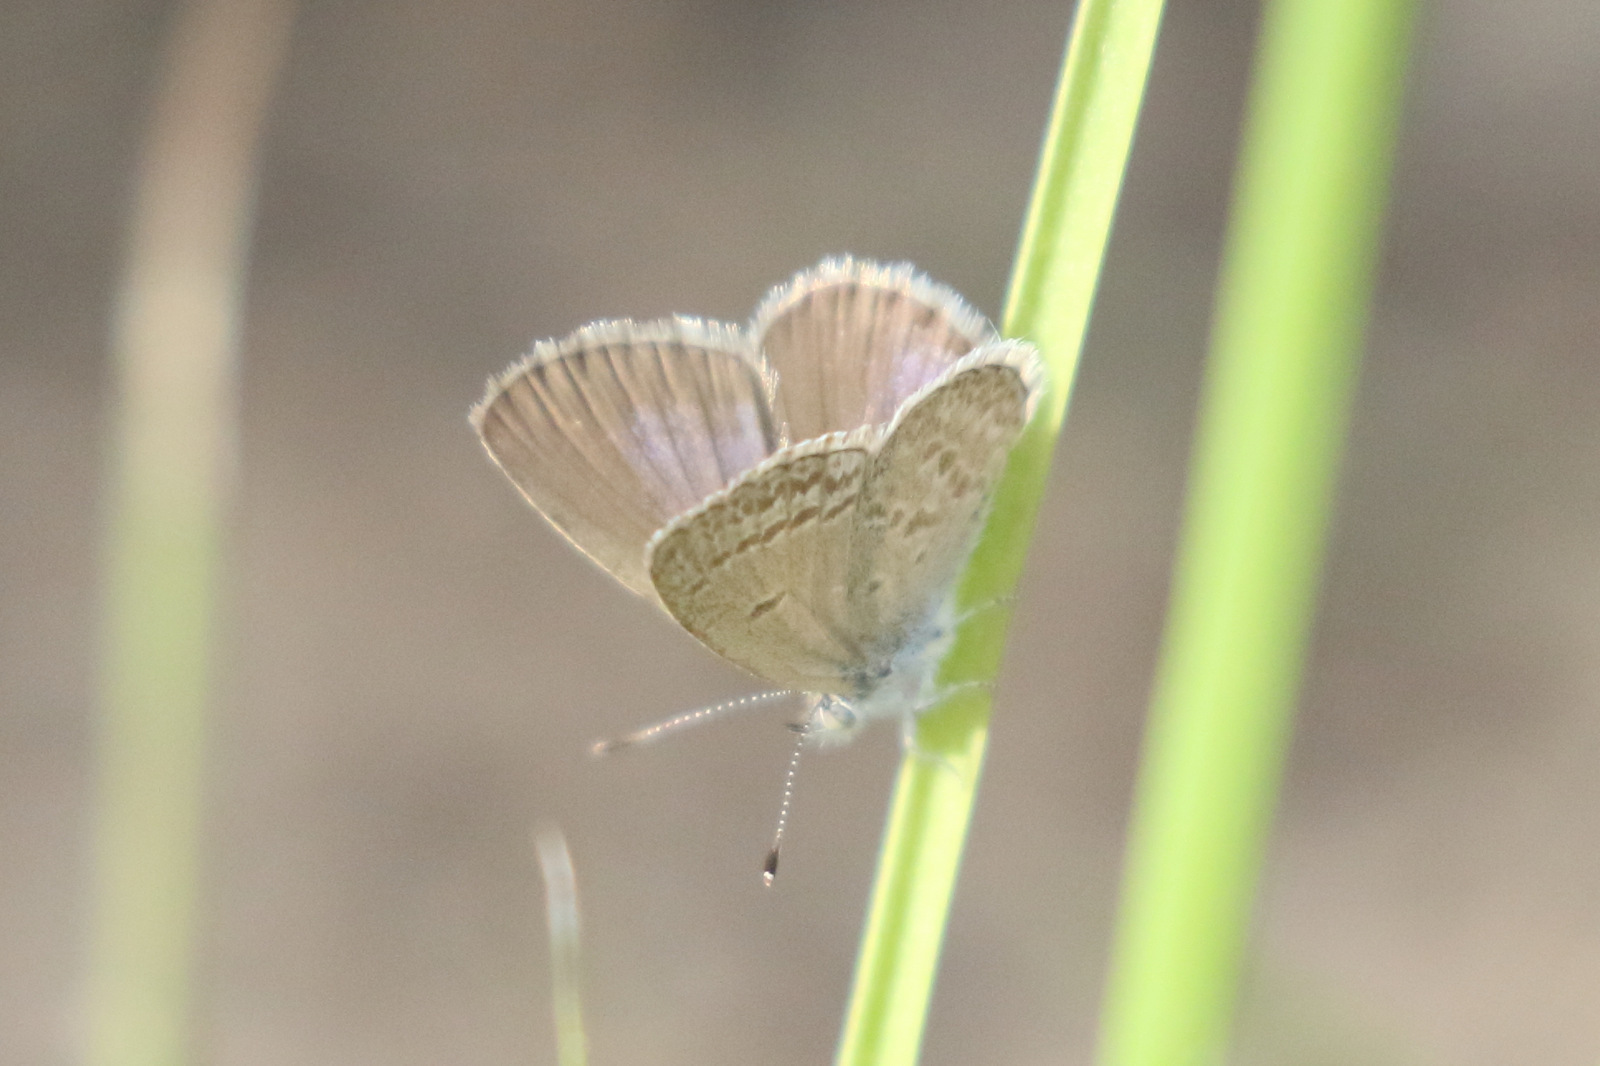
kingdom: Animalia
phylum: Arthropoda
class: Insecta
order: Lepidoptera
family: Lycaenidae
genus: Zizina
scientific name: Zizina labradus
